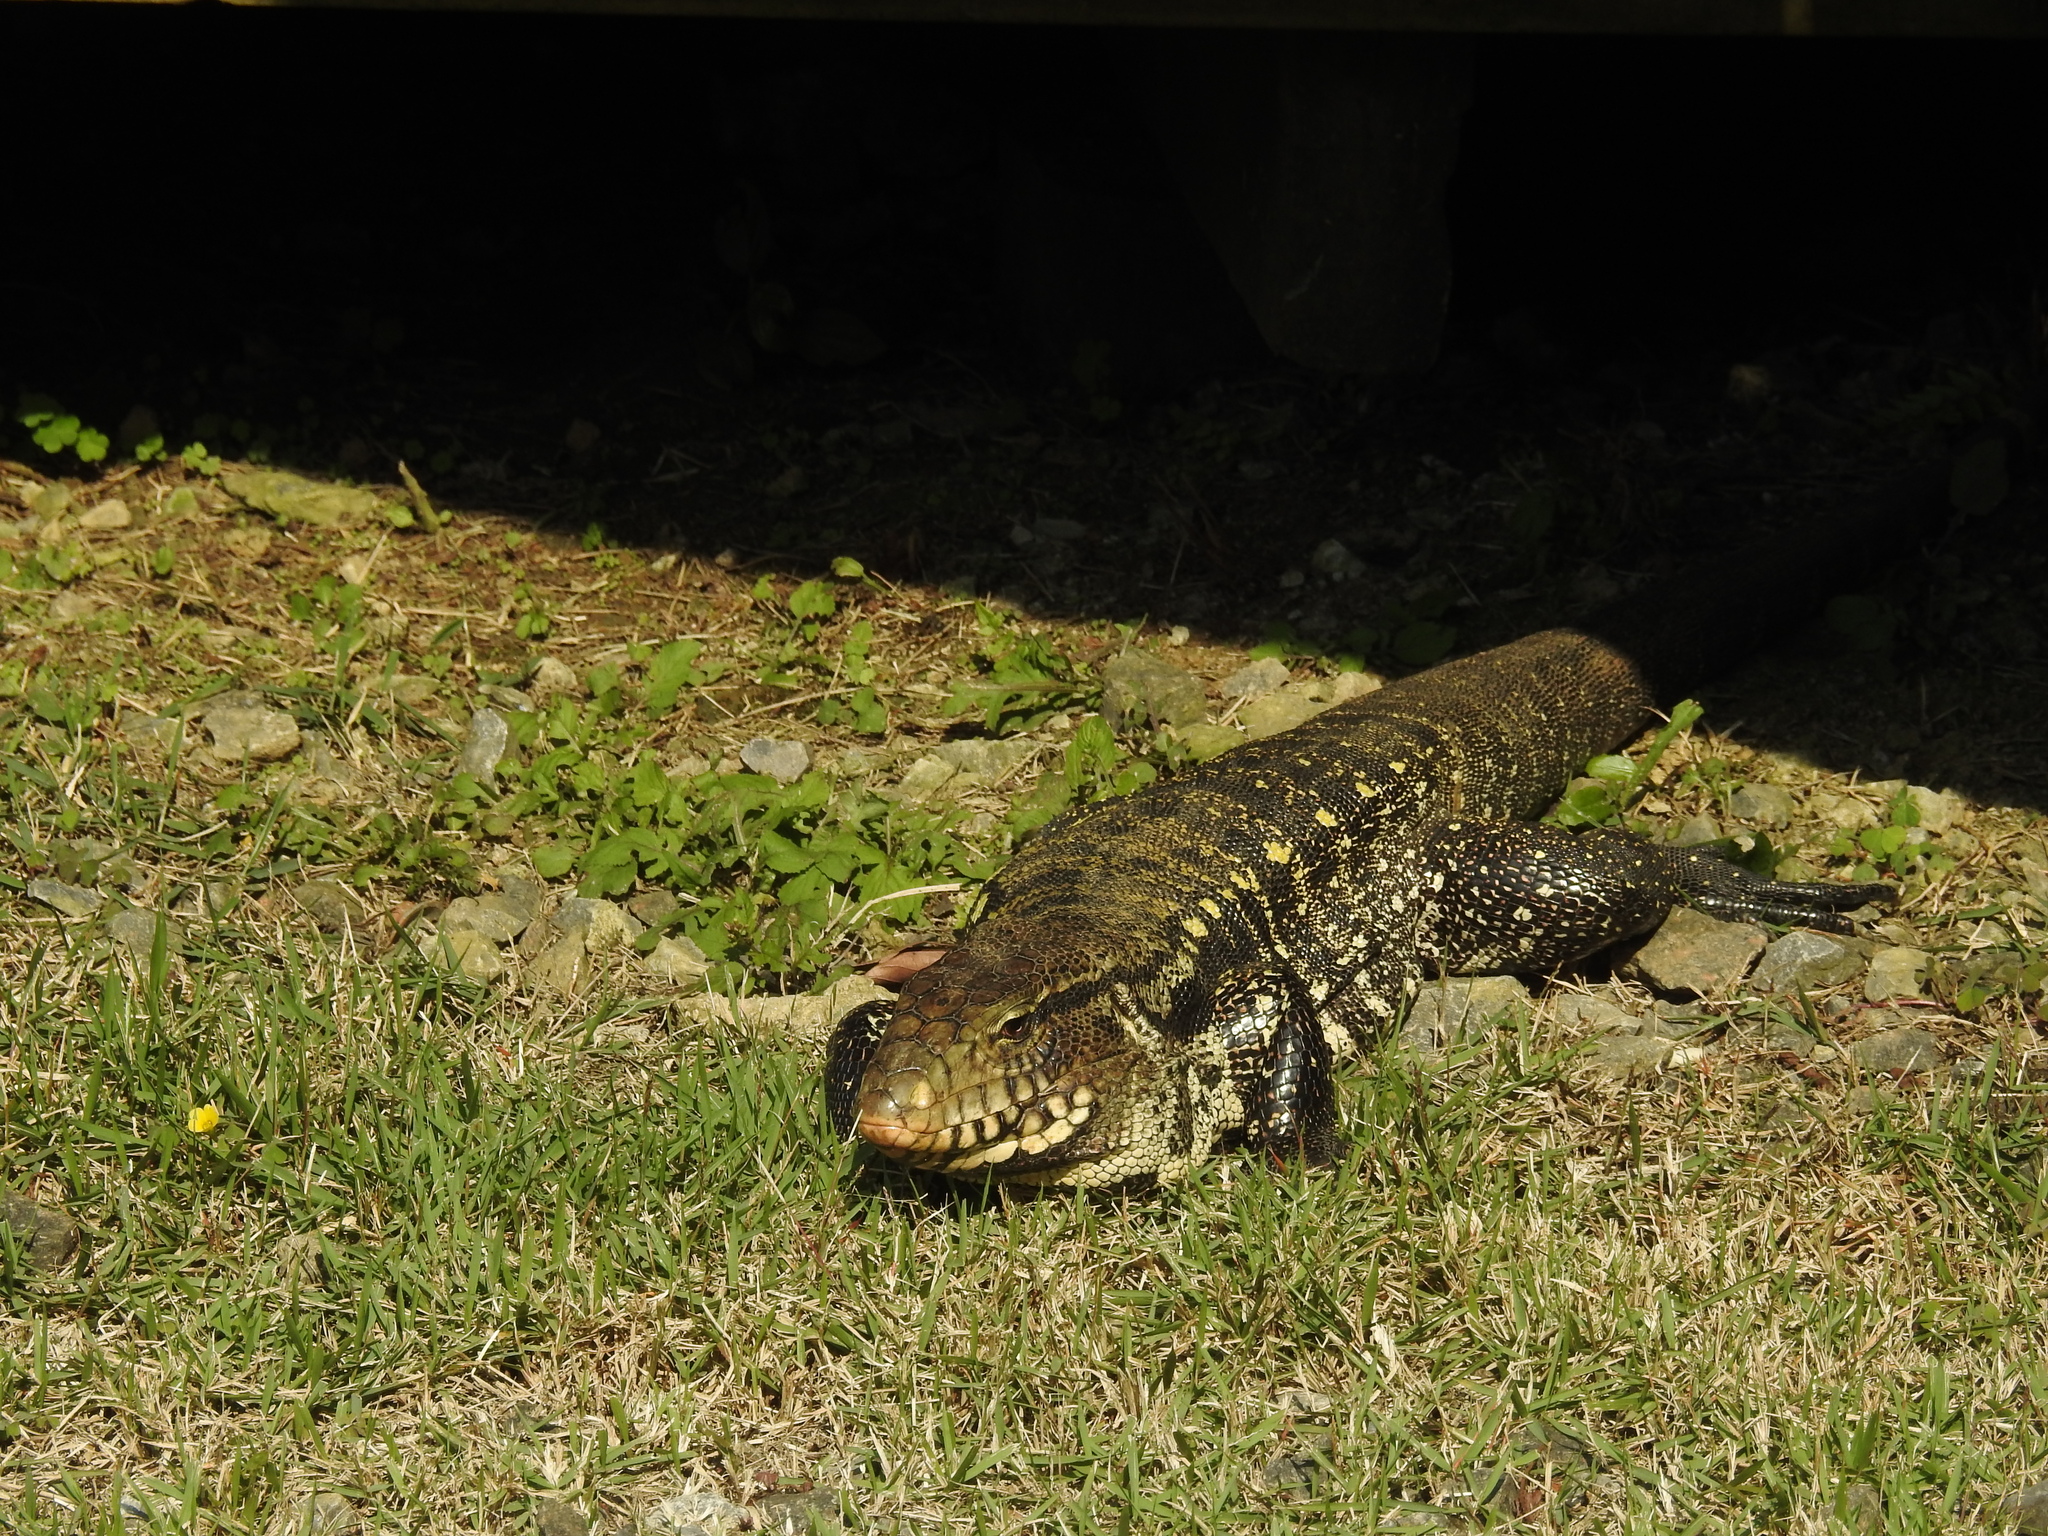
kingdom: Animalia
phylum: Chordata
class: Squamata
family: Teiidae
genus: Salvator
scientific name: Salvator merianae
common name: Argentine black and white tegu
